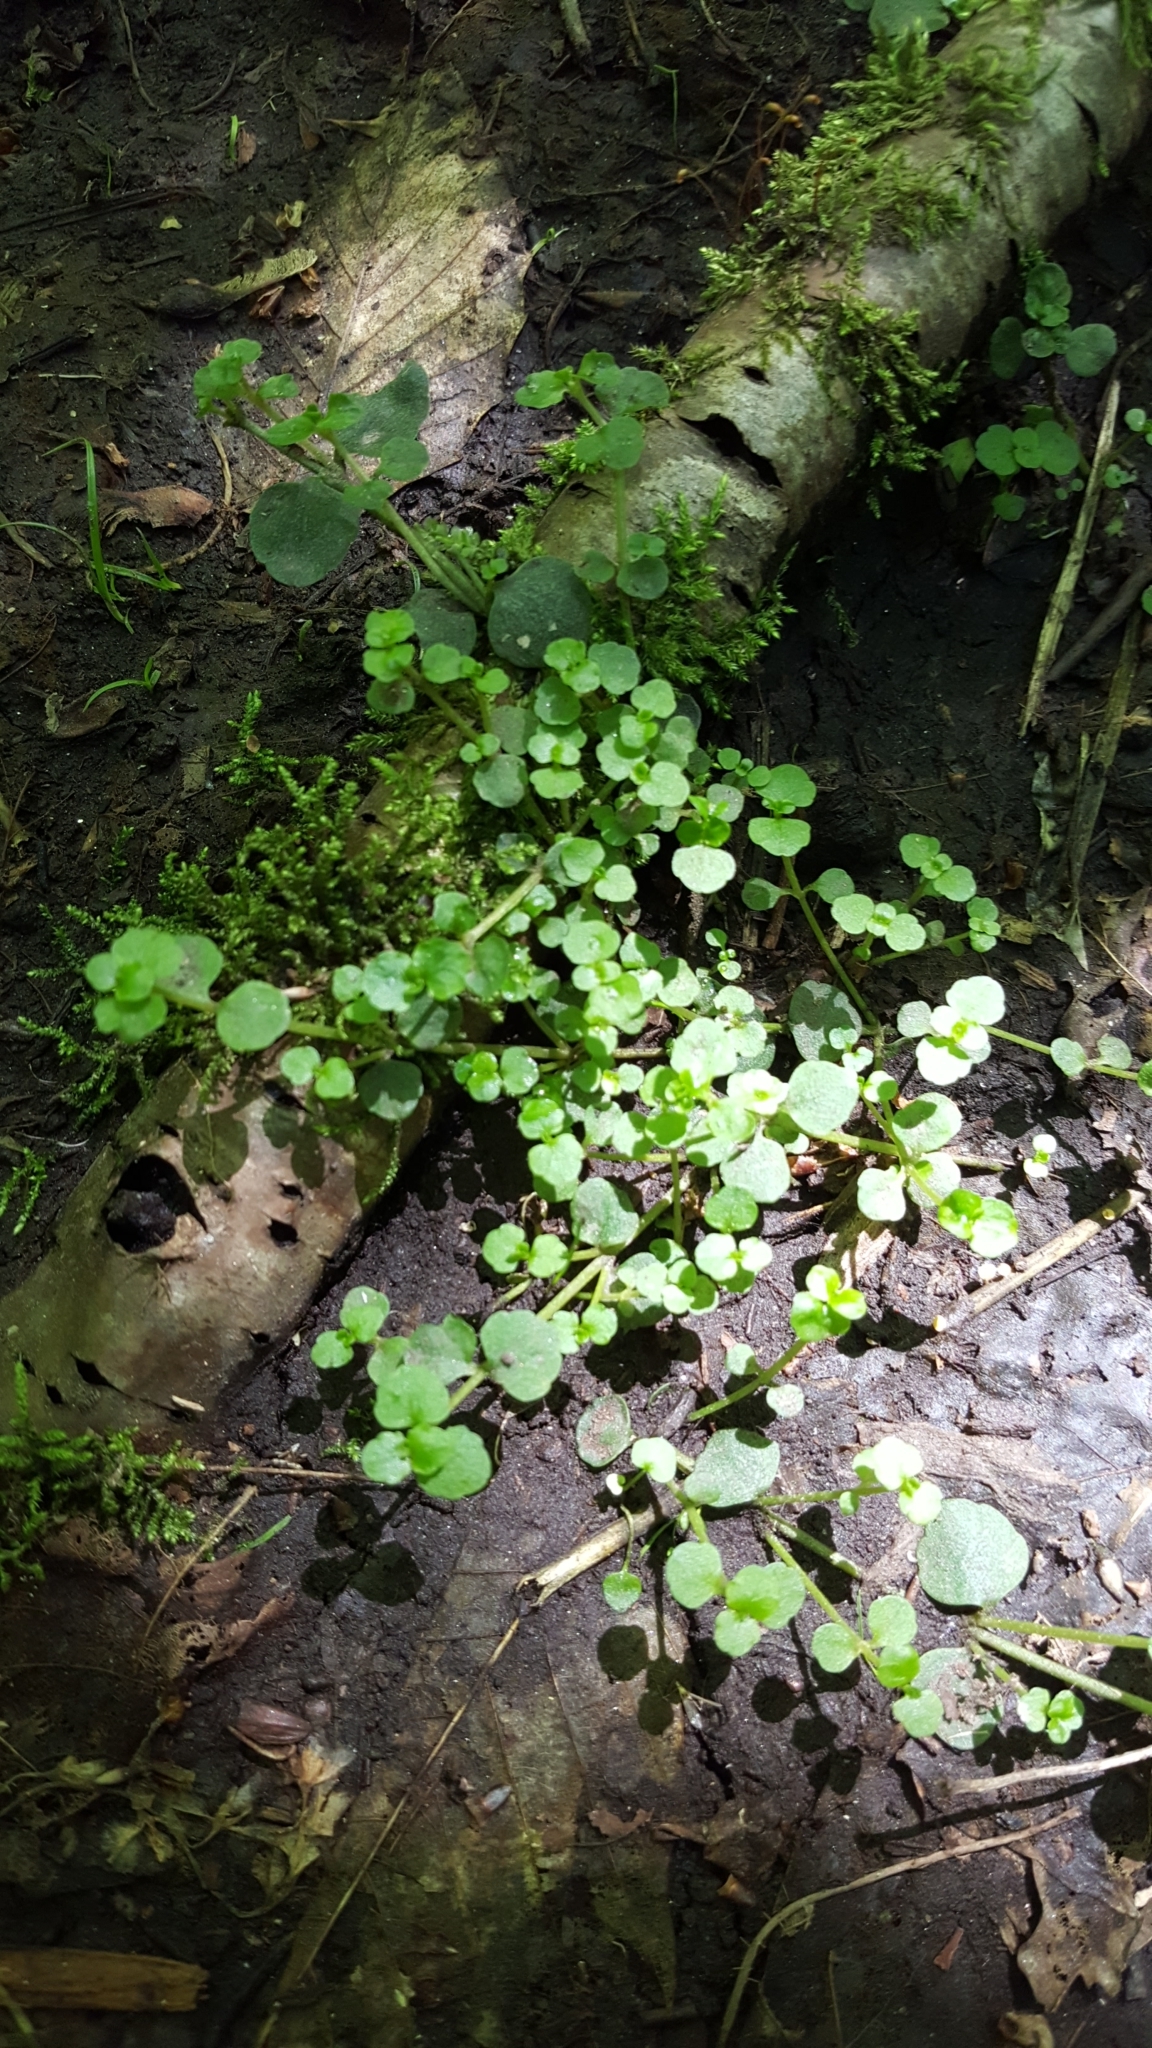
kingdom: Plantae
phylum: Tracheophyta
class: Magnoliopsida
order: Saxifragales
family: Saxifragaceae
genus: Chrysosplenium
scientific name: Chrysosplenium americanum
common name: American golden-saxifrage
